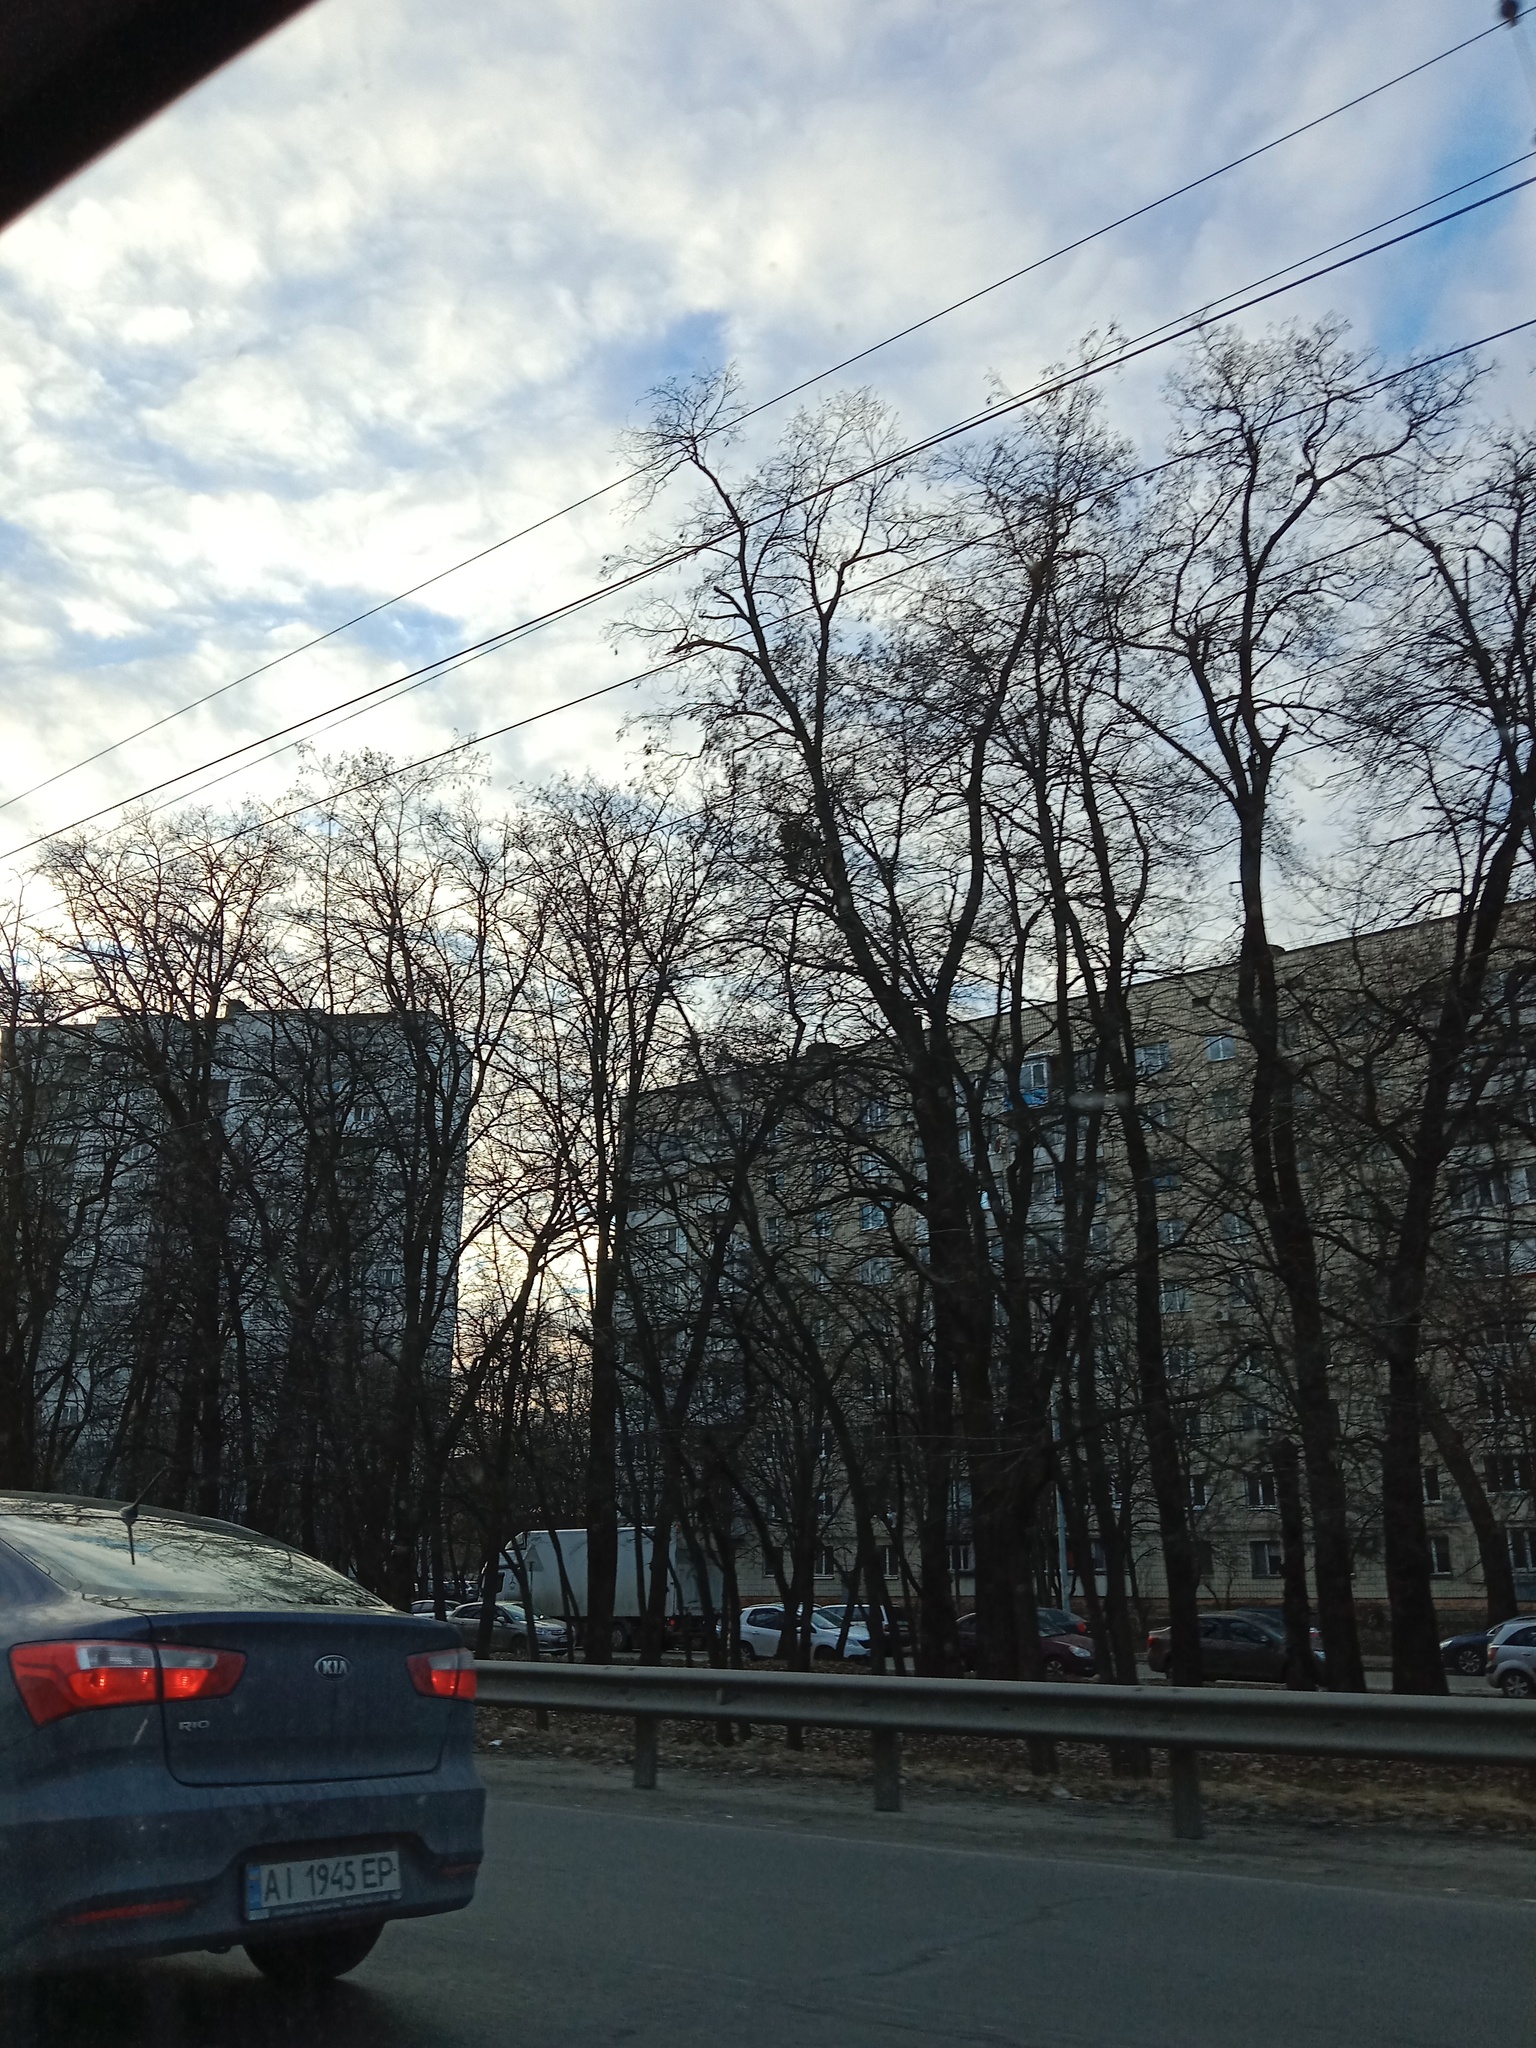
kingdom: Plantae
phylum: Tracheophyta
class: Magnoliopsida
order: Santalales
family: Viscaceae
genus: Viscum
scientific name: Viscum album
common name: Mistletoe
